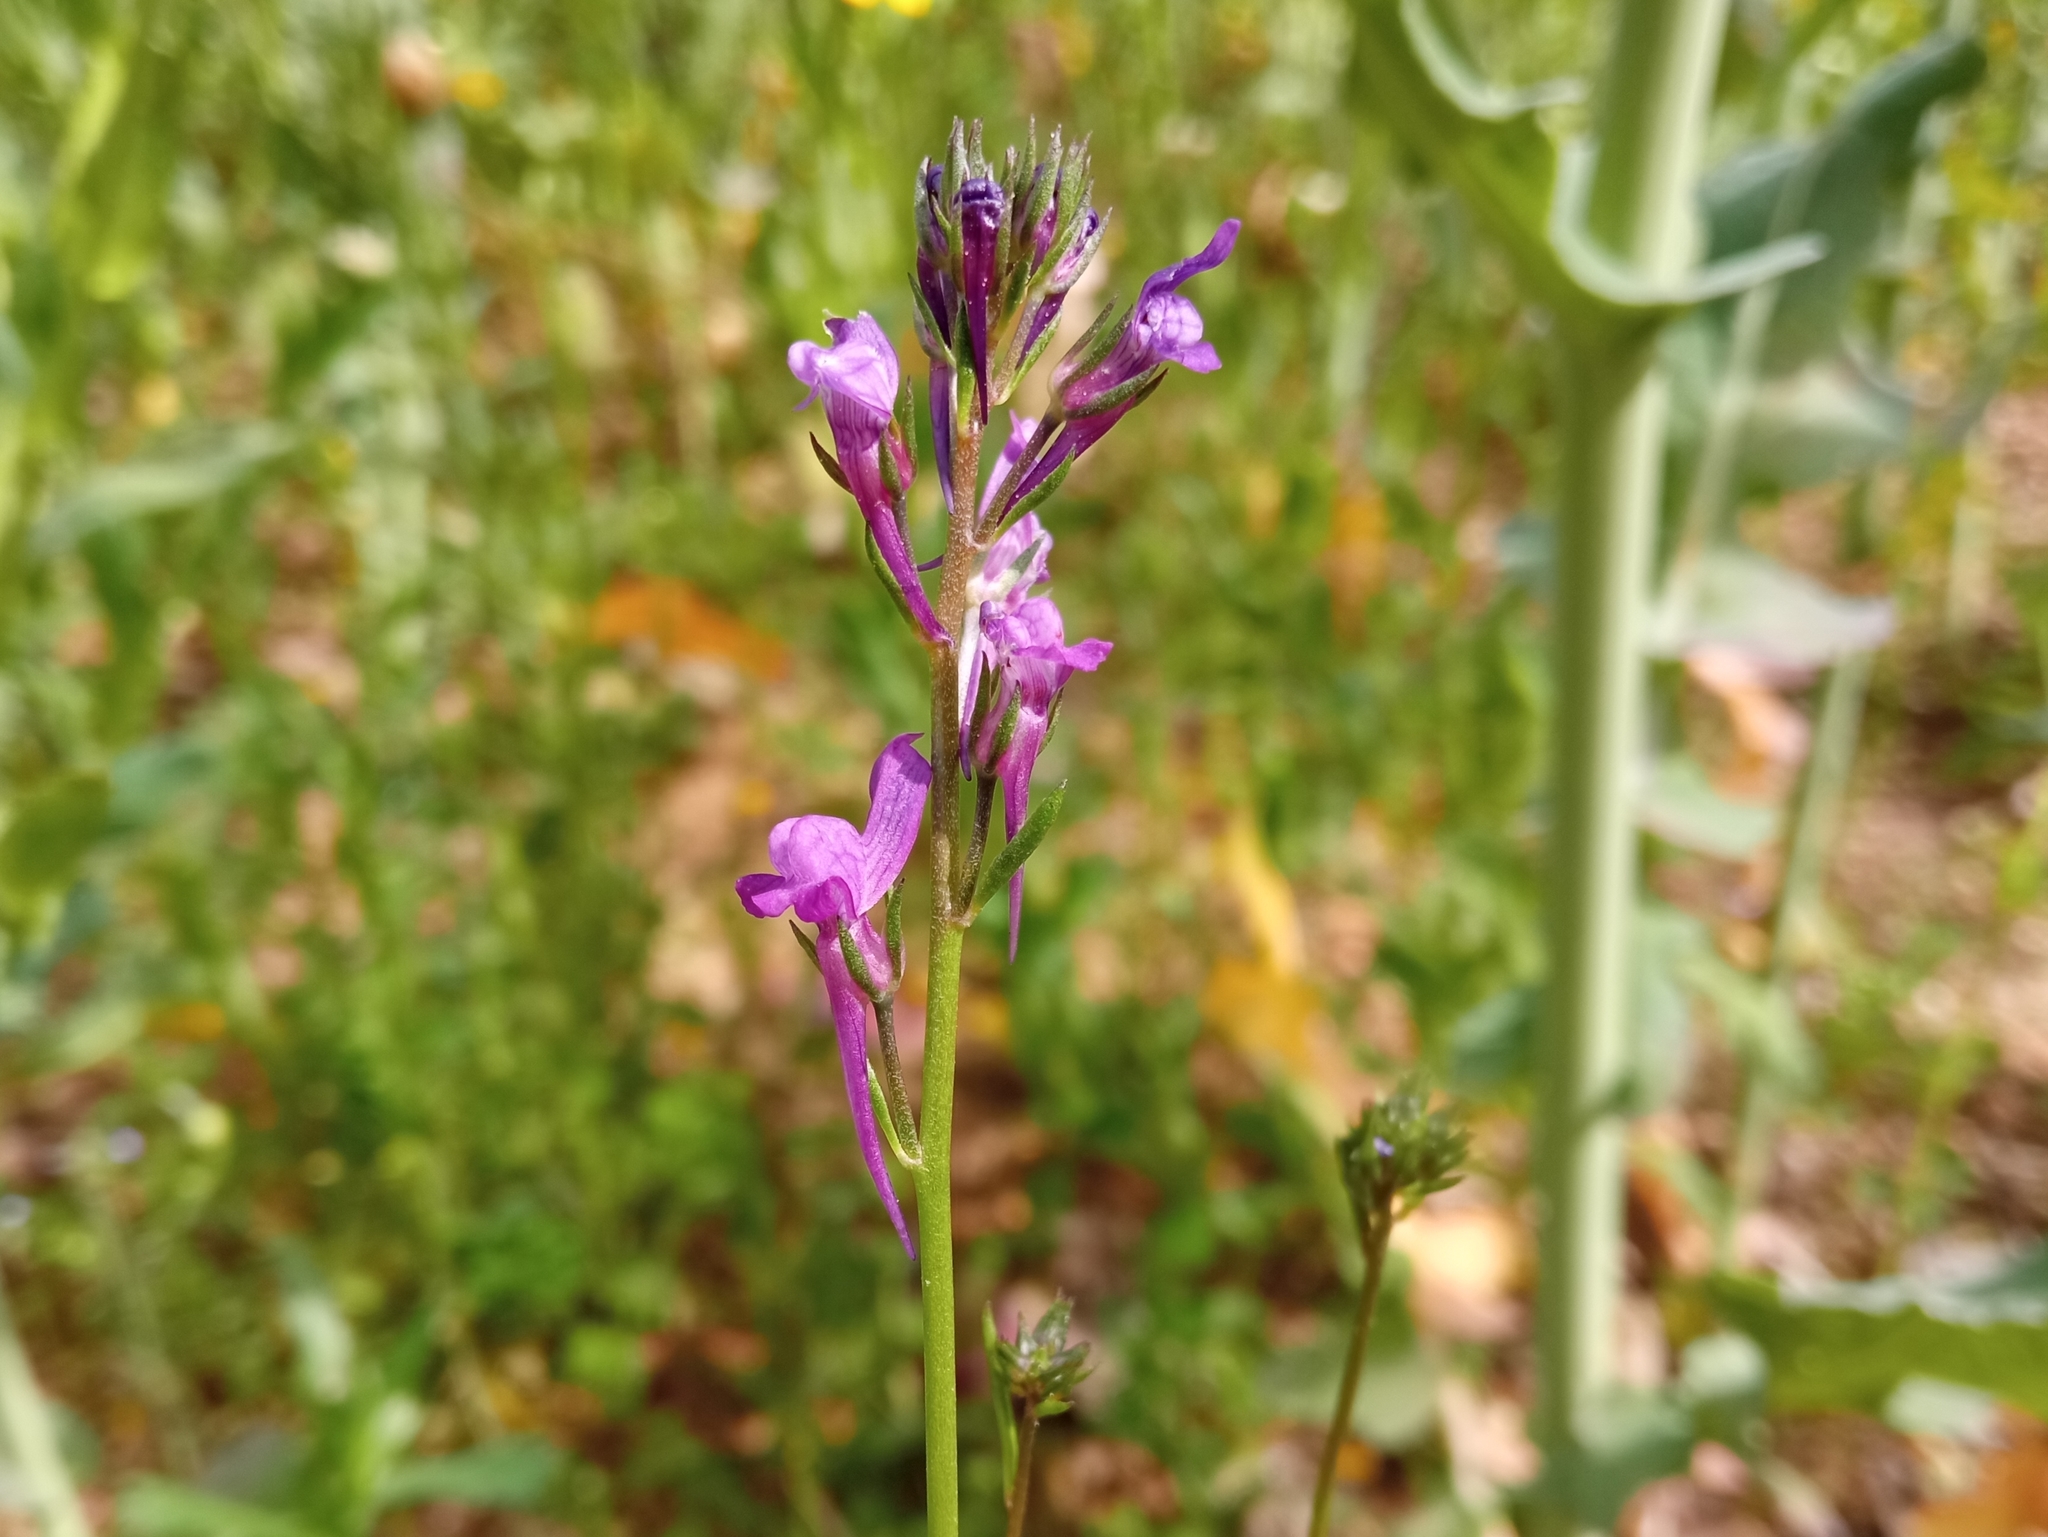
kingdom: Plantae
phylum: Tracheophyta
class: Magnoliopsida
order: Lamiales
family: Plantaginaceae
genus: Linaria
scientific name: Linaria pelisseriana
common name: Jersey toadflax
